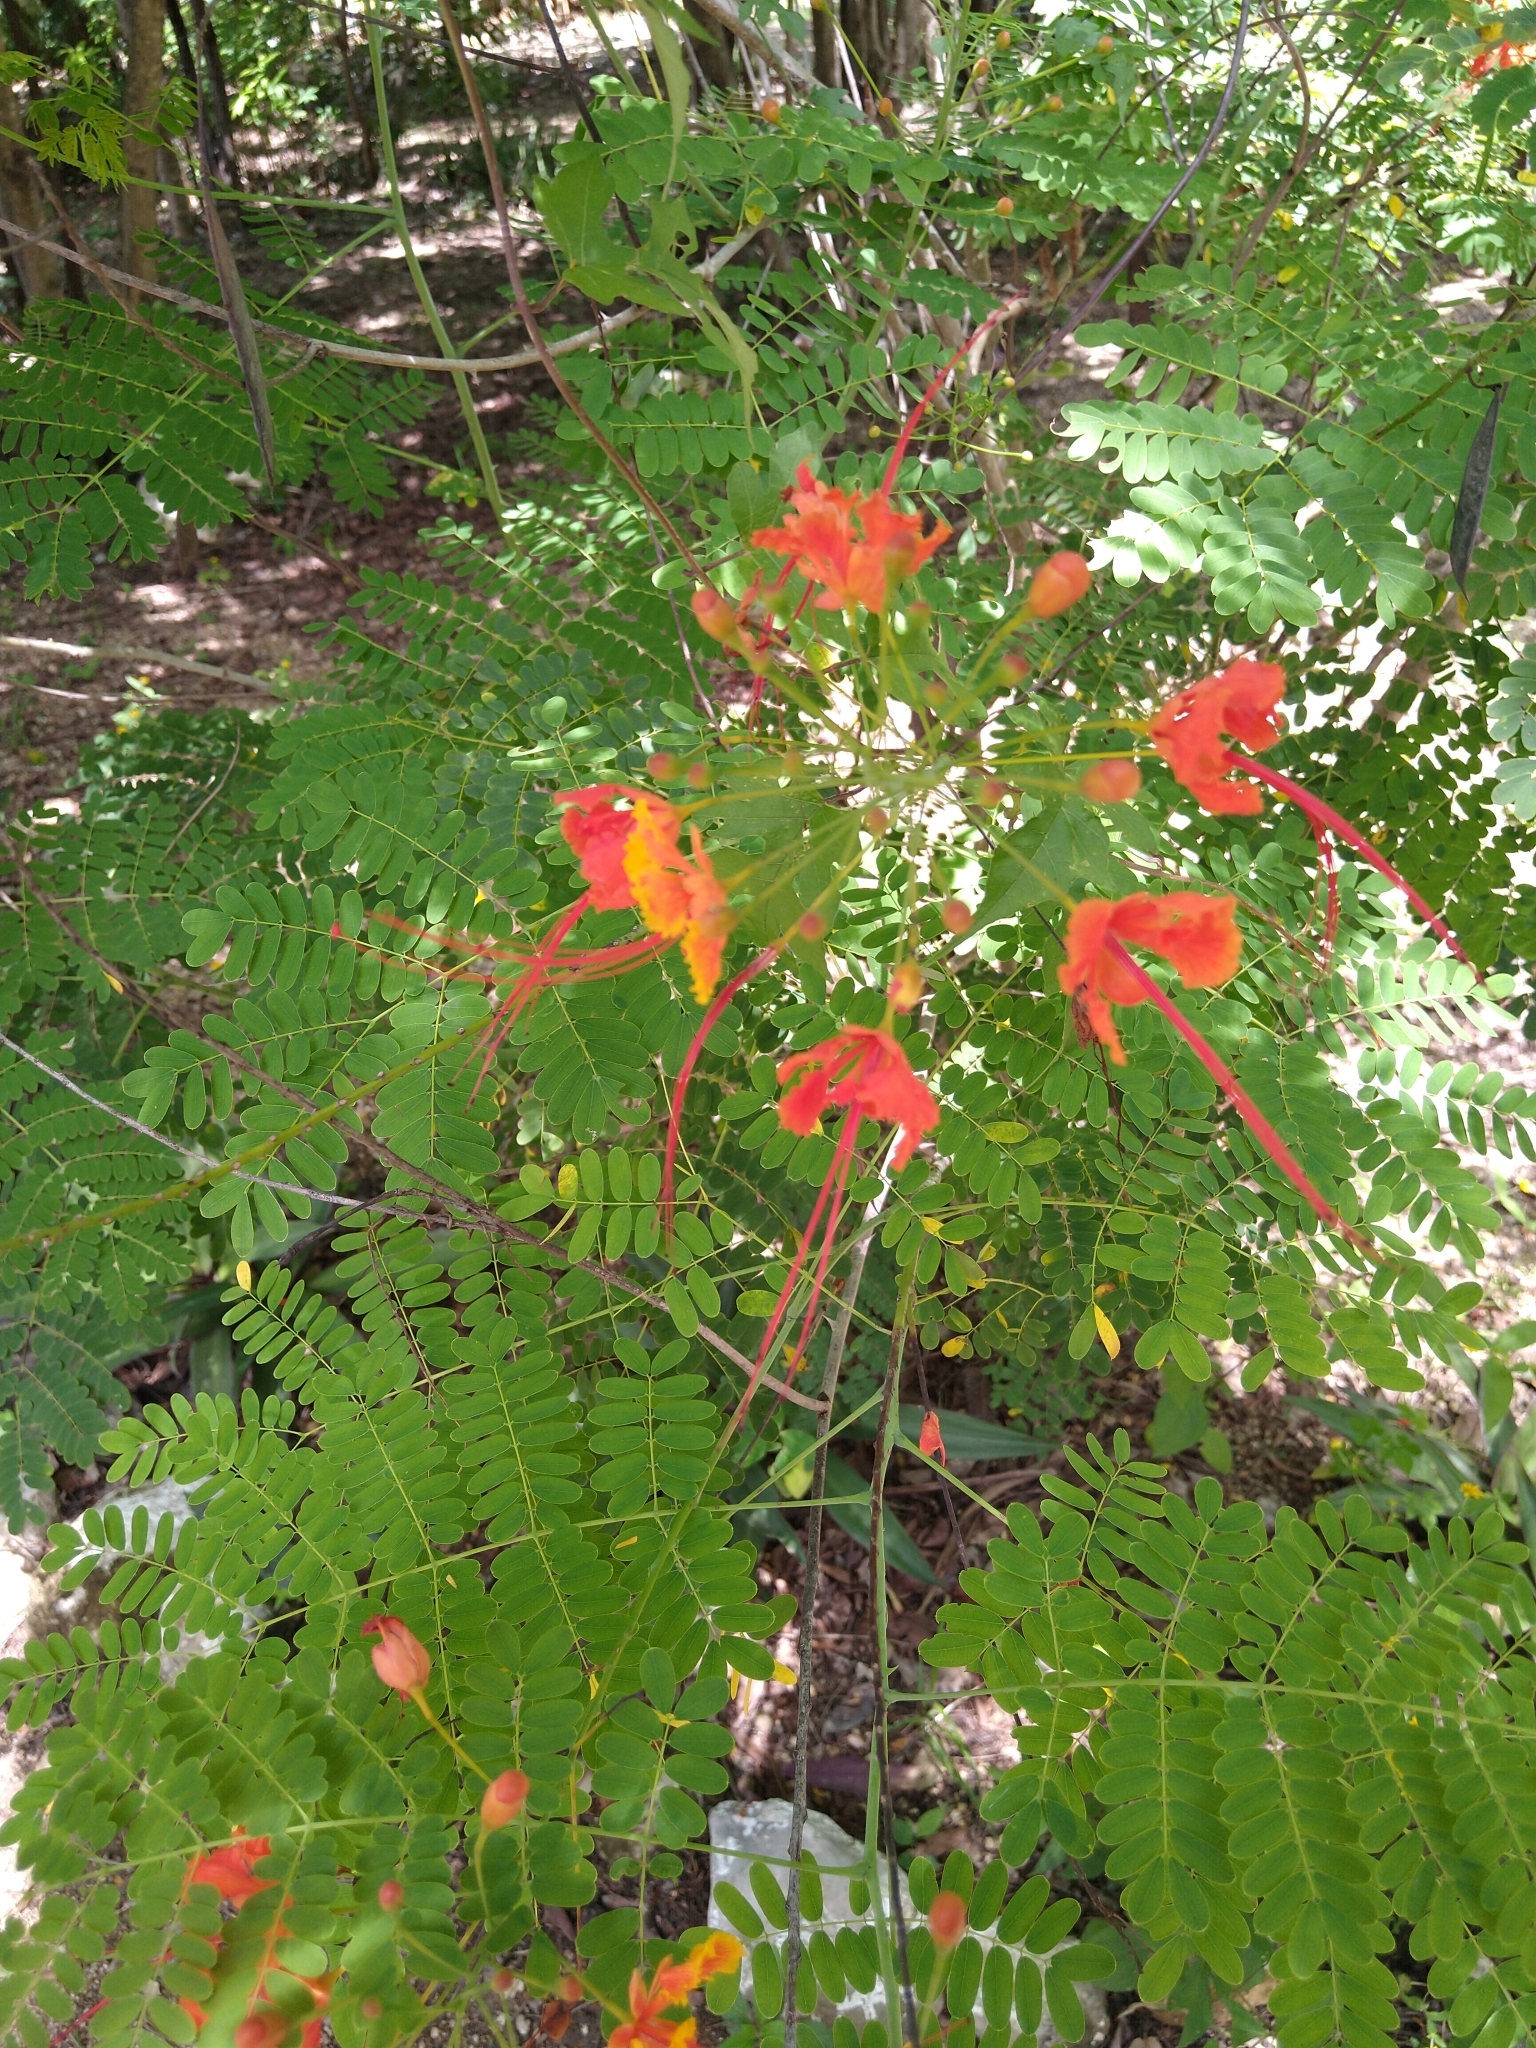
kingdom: Plantae
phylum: Tracheophyta
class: Magnoliopsida
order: Fabales
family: Fabaceae
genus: Caesalpinia
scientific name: Caesalpinia pulcherrima
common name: Pride-of-barbados
